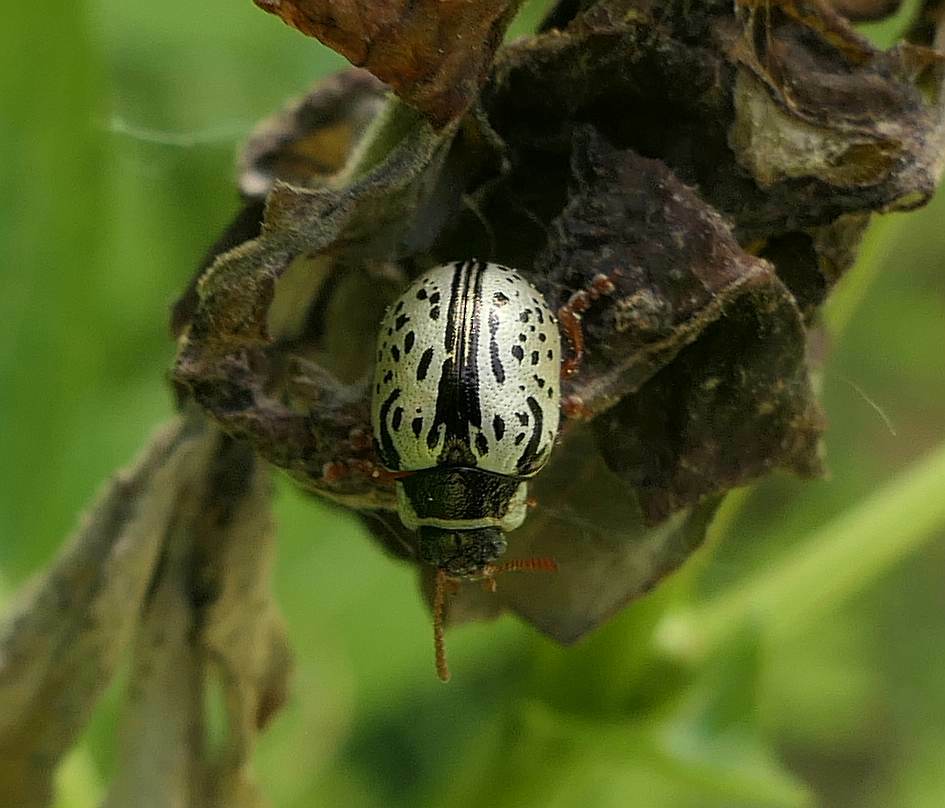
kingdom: Animalia
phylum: Arthropoda
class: Insecta
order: Coleoptera
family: Chrysomelidae
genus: Calligrapha
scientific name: Calligrapha multipunctata
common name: Common willow calligrapher beetle
